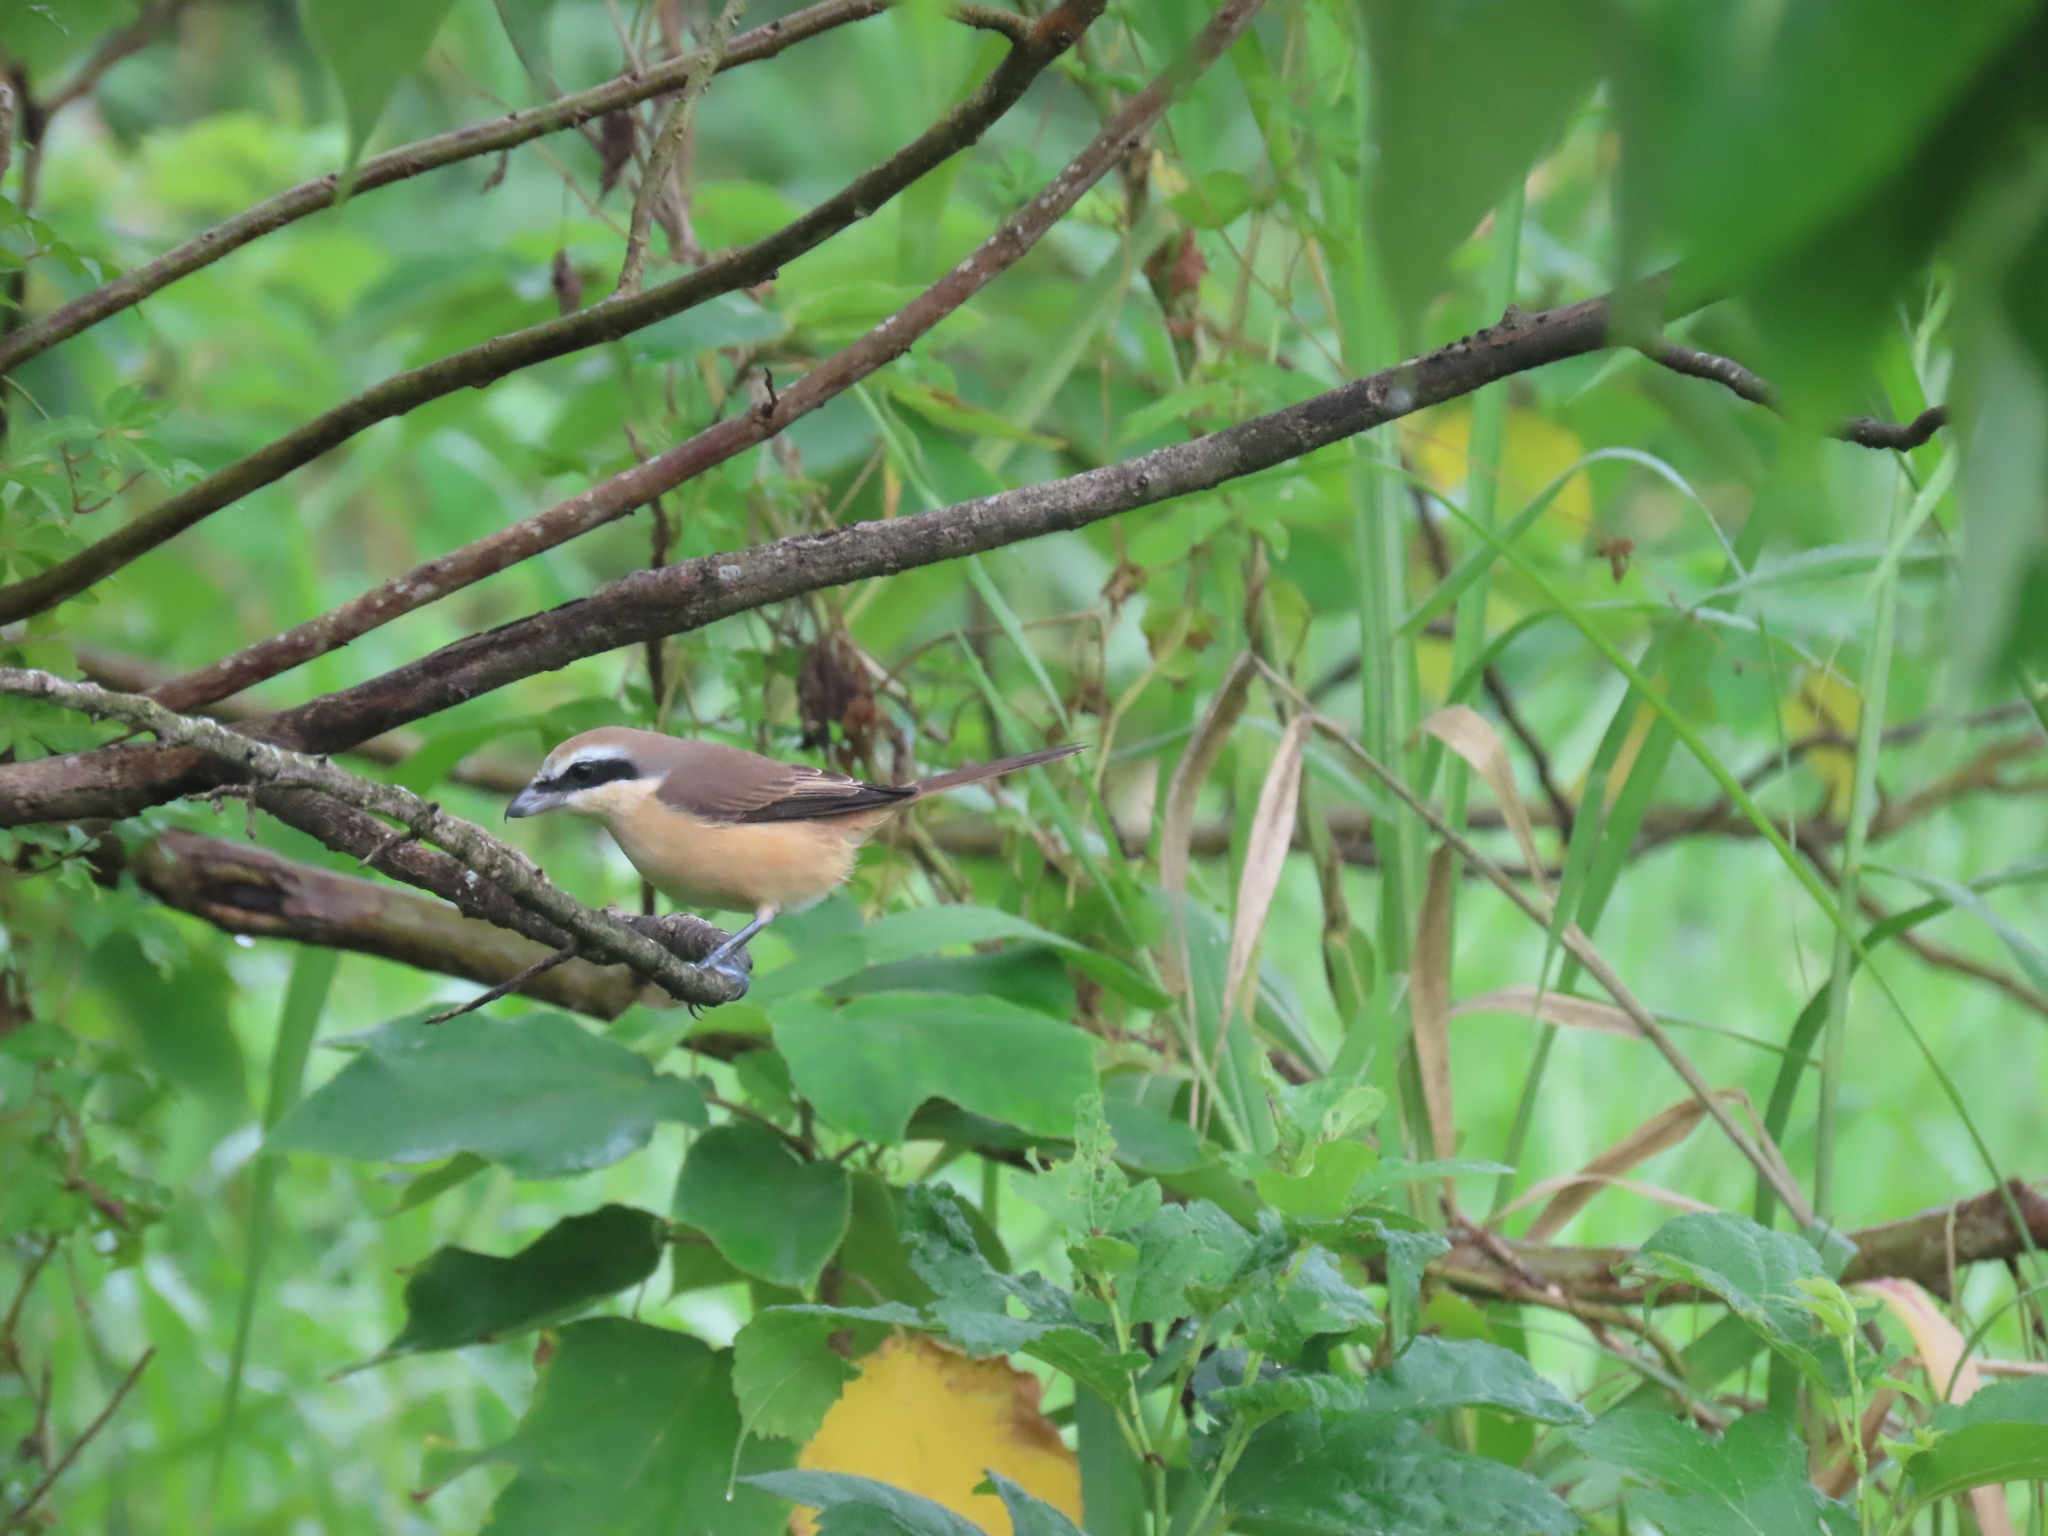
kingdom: Animalia
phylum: Chordata
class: Aves
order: Passeriformes
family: Laniidae
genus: Lanius
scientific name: Lanius cristatus
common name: Brown shrike
